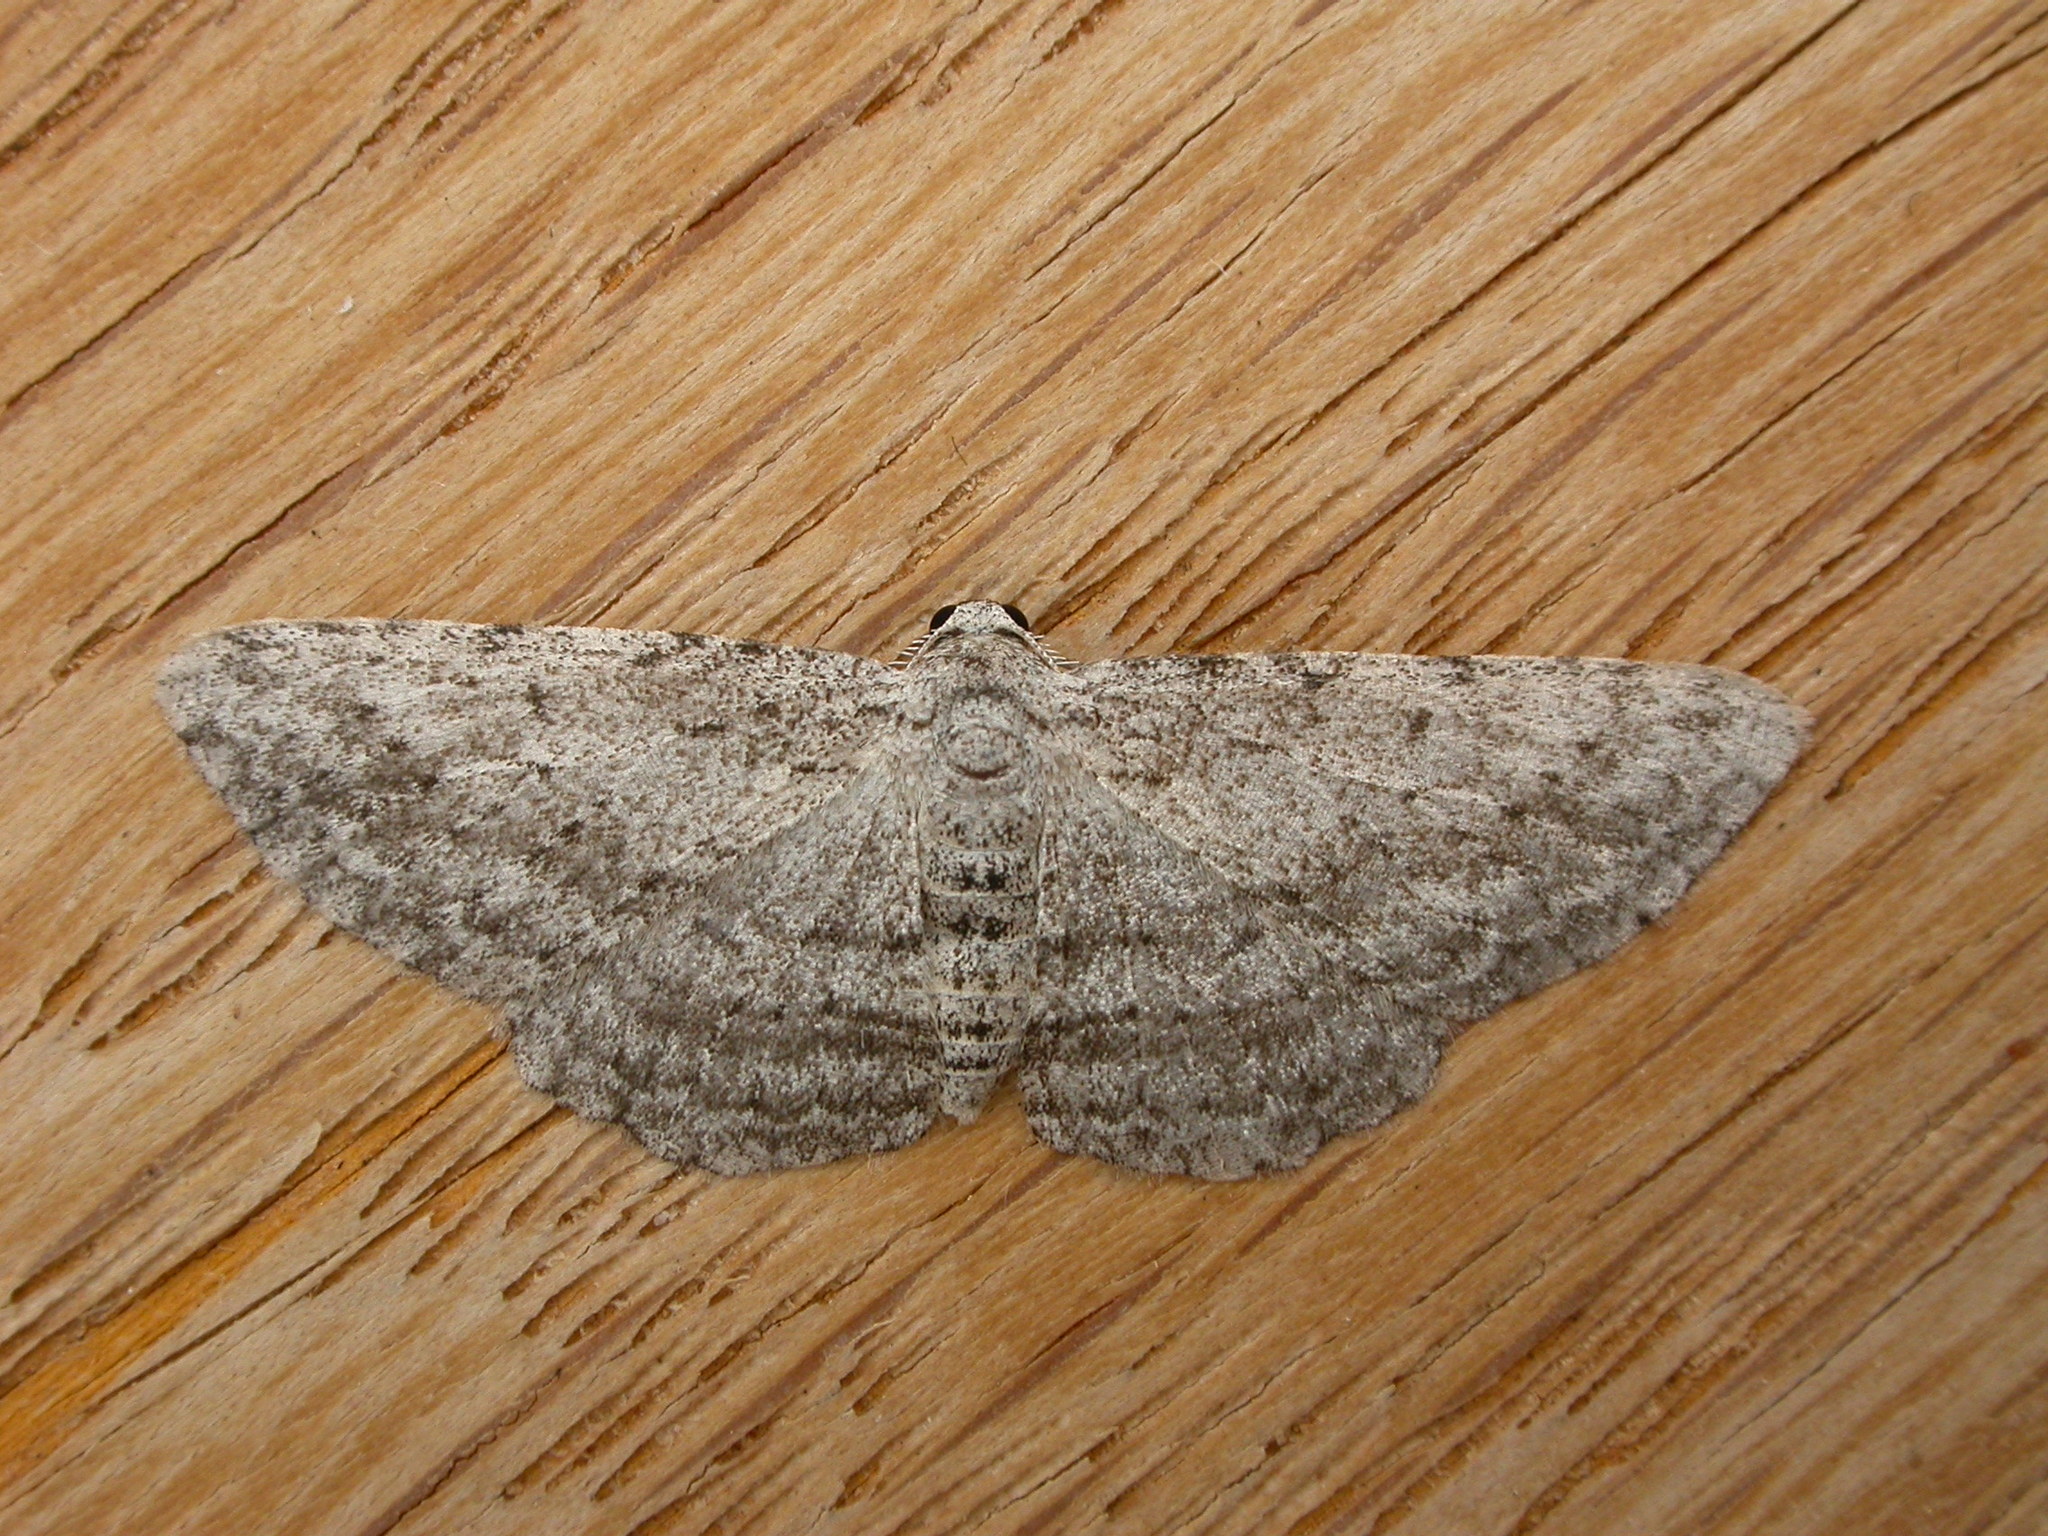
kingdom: Animalia
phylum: Arthropoda
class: Insecta
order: Lepidoptera
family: Geometridae
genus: Phelotis
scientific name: Phelotis cognata
